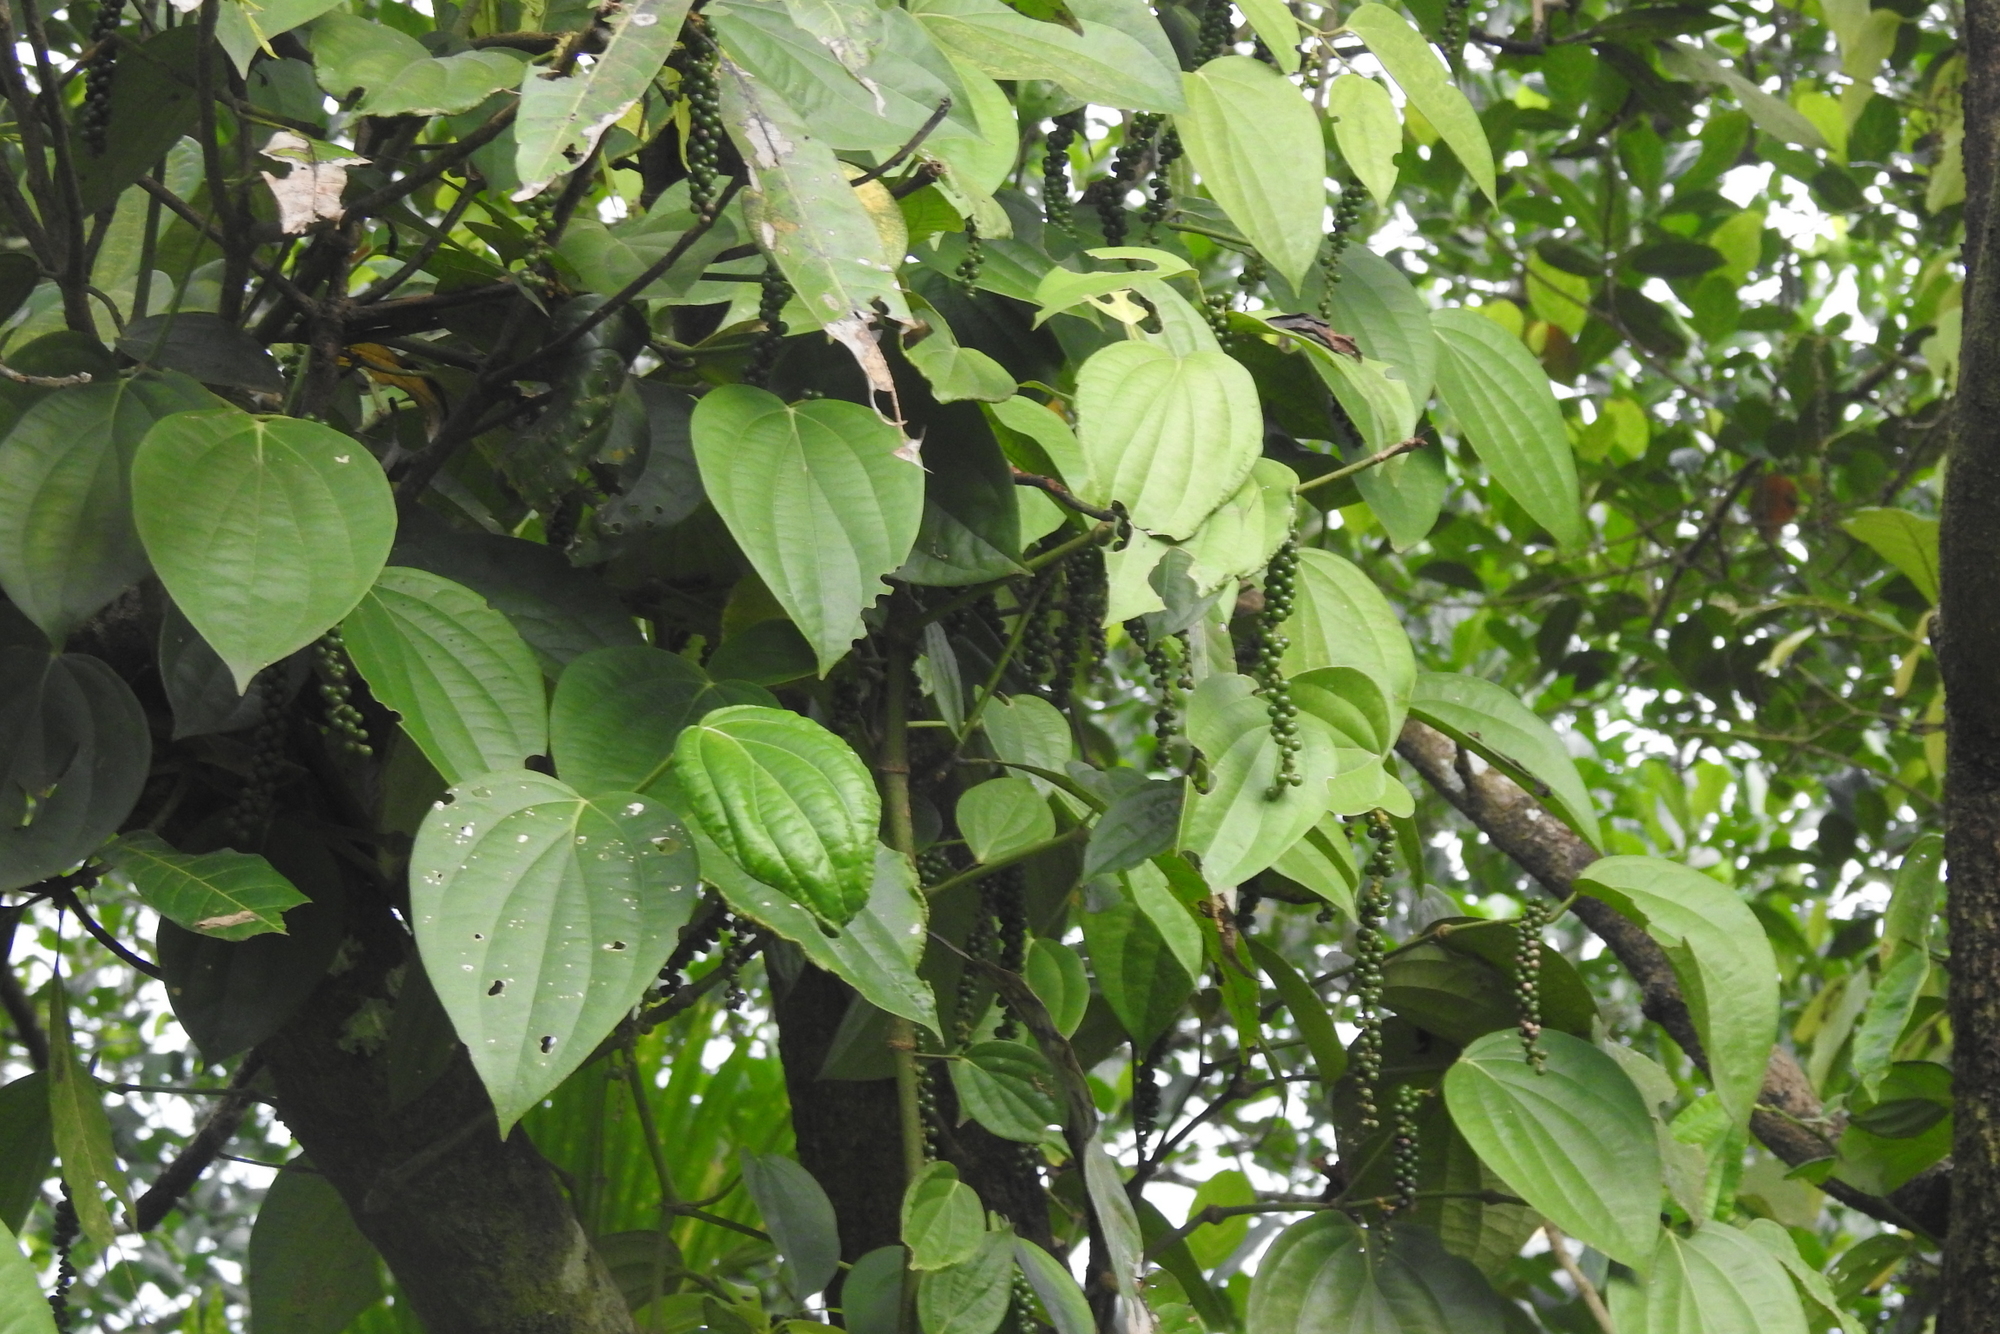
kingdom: Plantae
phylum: Tracheophyta
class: Magnoliopsida
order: Piperales
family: Piperaceae
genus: Piper
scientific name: Piper nigrum
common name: Black pepper
